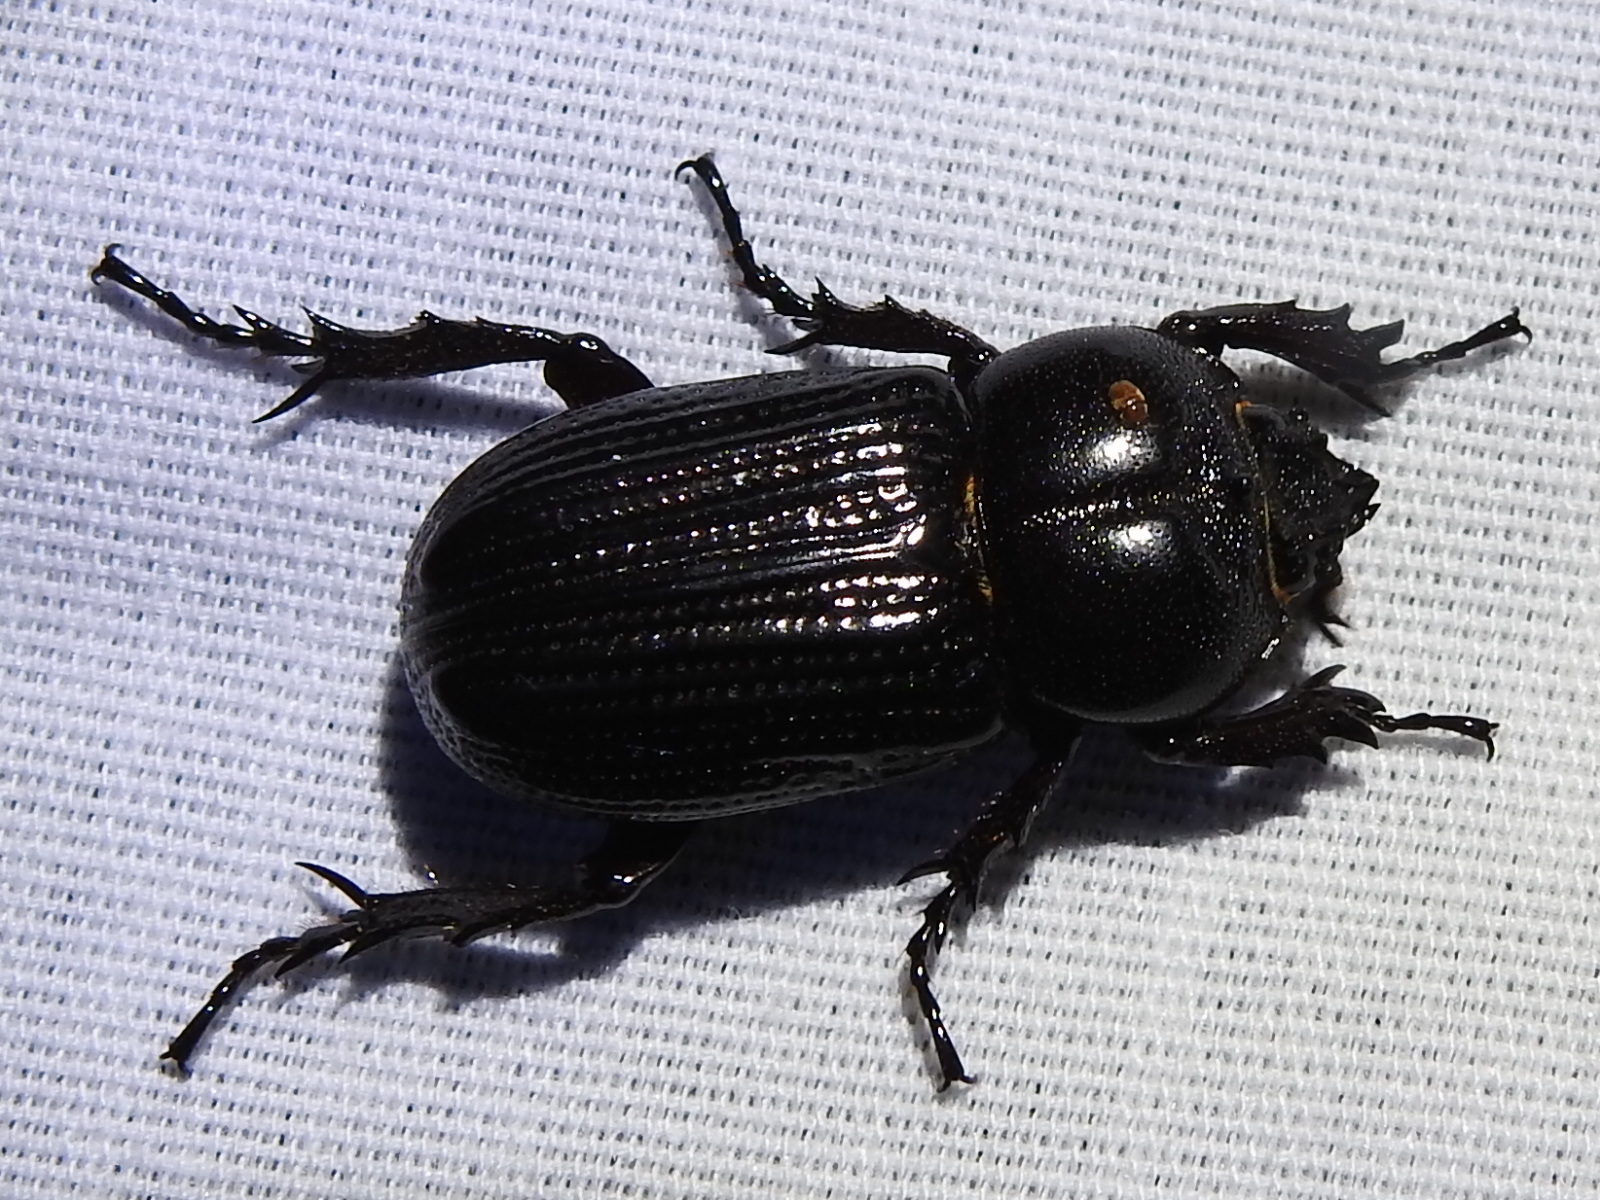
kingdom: Animalia
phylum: Arthropoda
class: Insecta
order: Coleoptera
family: Scarabaeidae
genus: Phileurus
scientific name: Phileurus valgus
